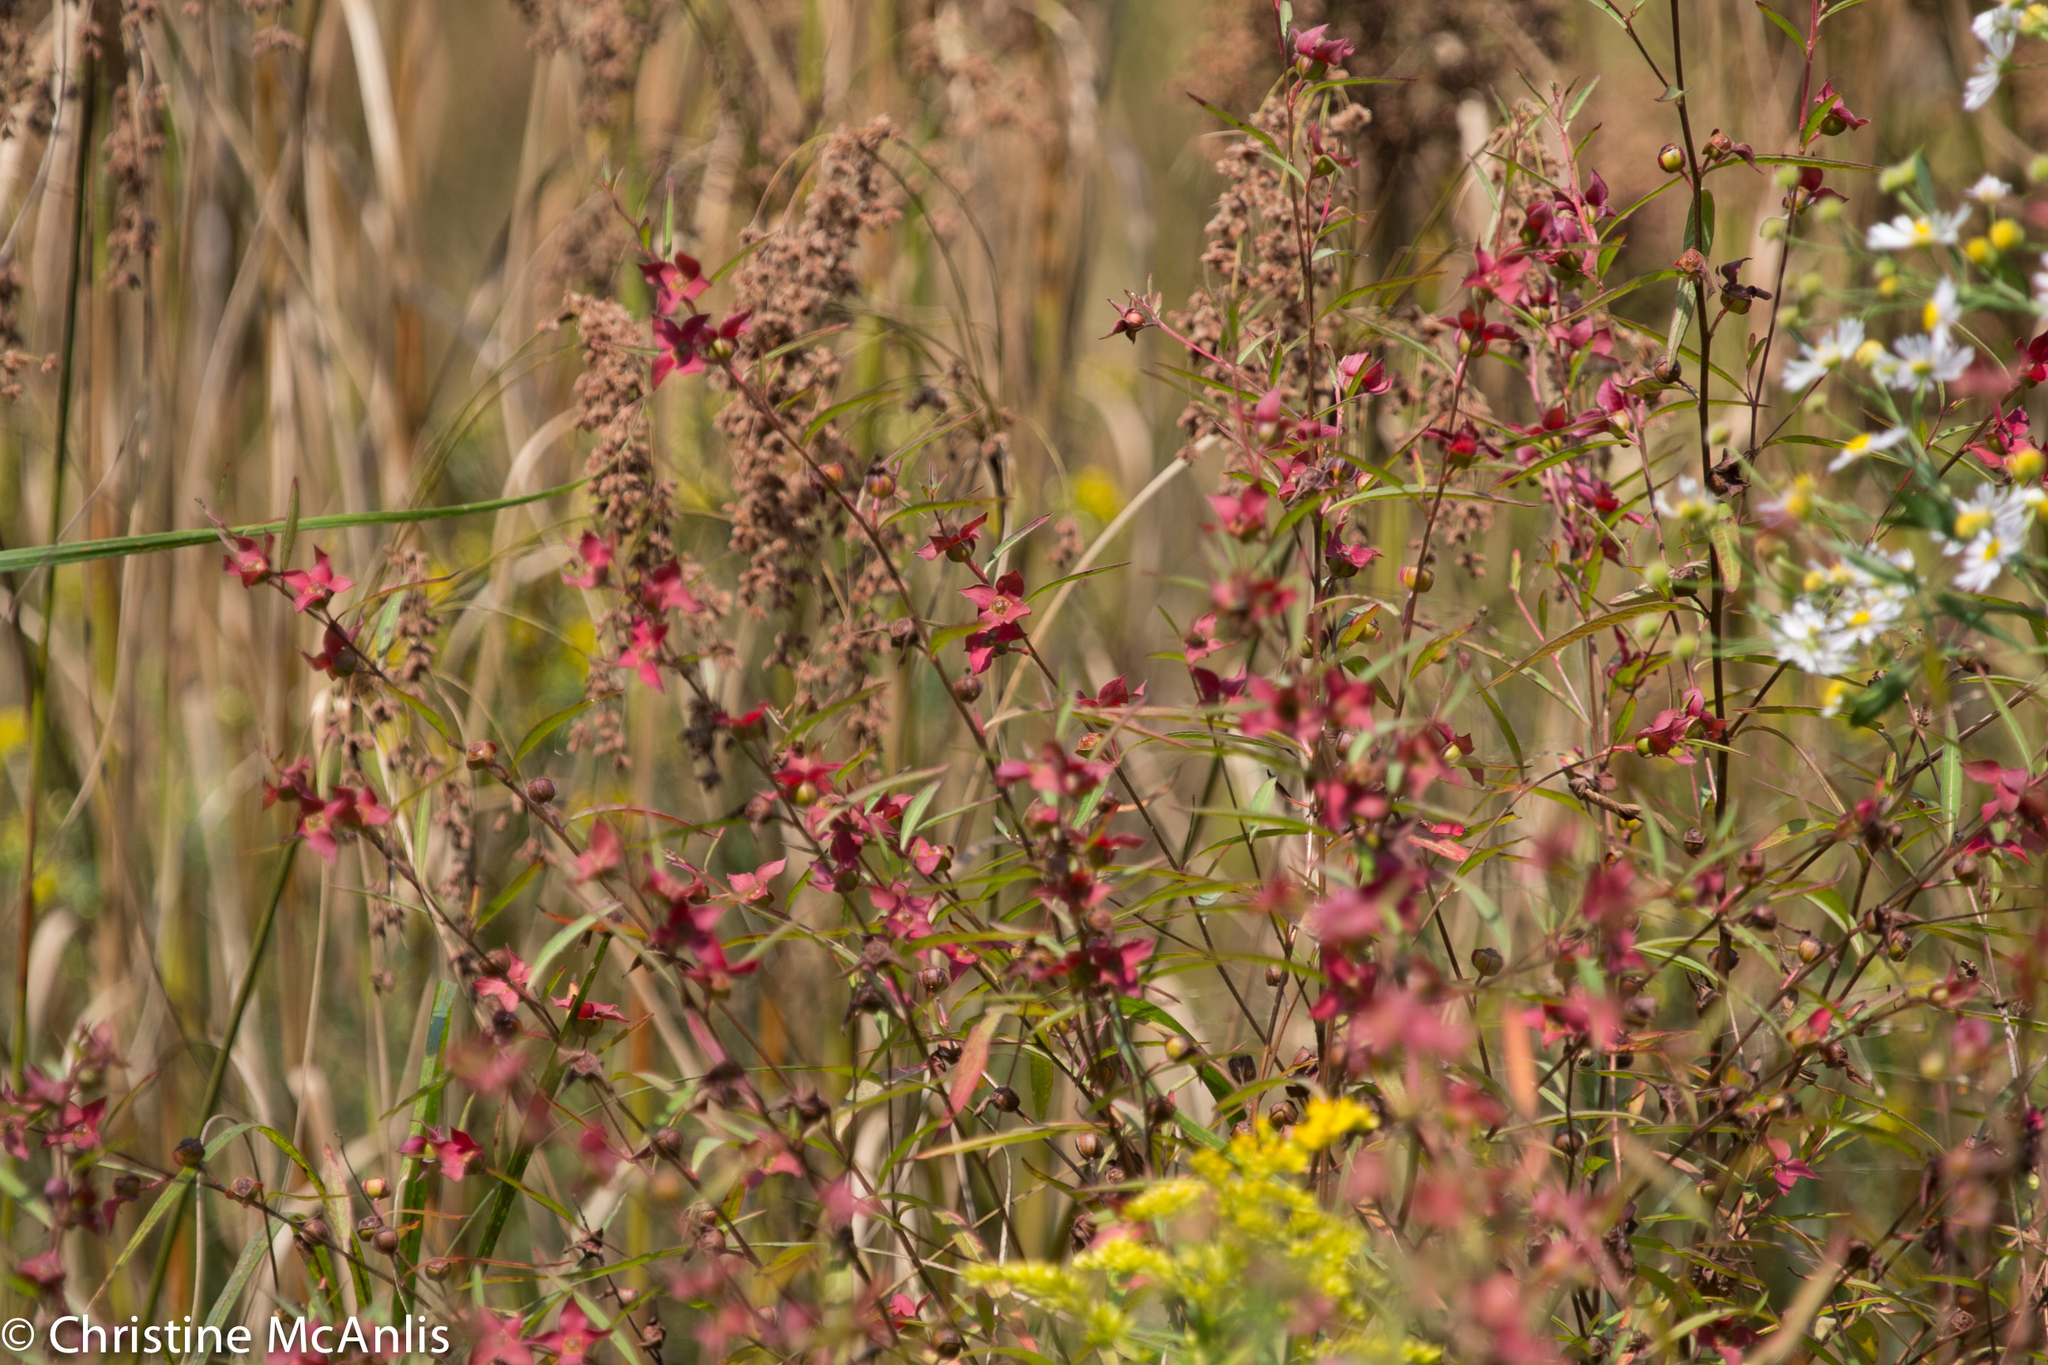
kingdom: Plantae
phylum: Tracheophyta
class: Magnoliopsida
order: Myrtales
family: Onagraceae
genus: Ludwigia
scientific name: Ludwigia alternifolia
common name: Rattlebox
